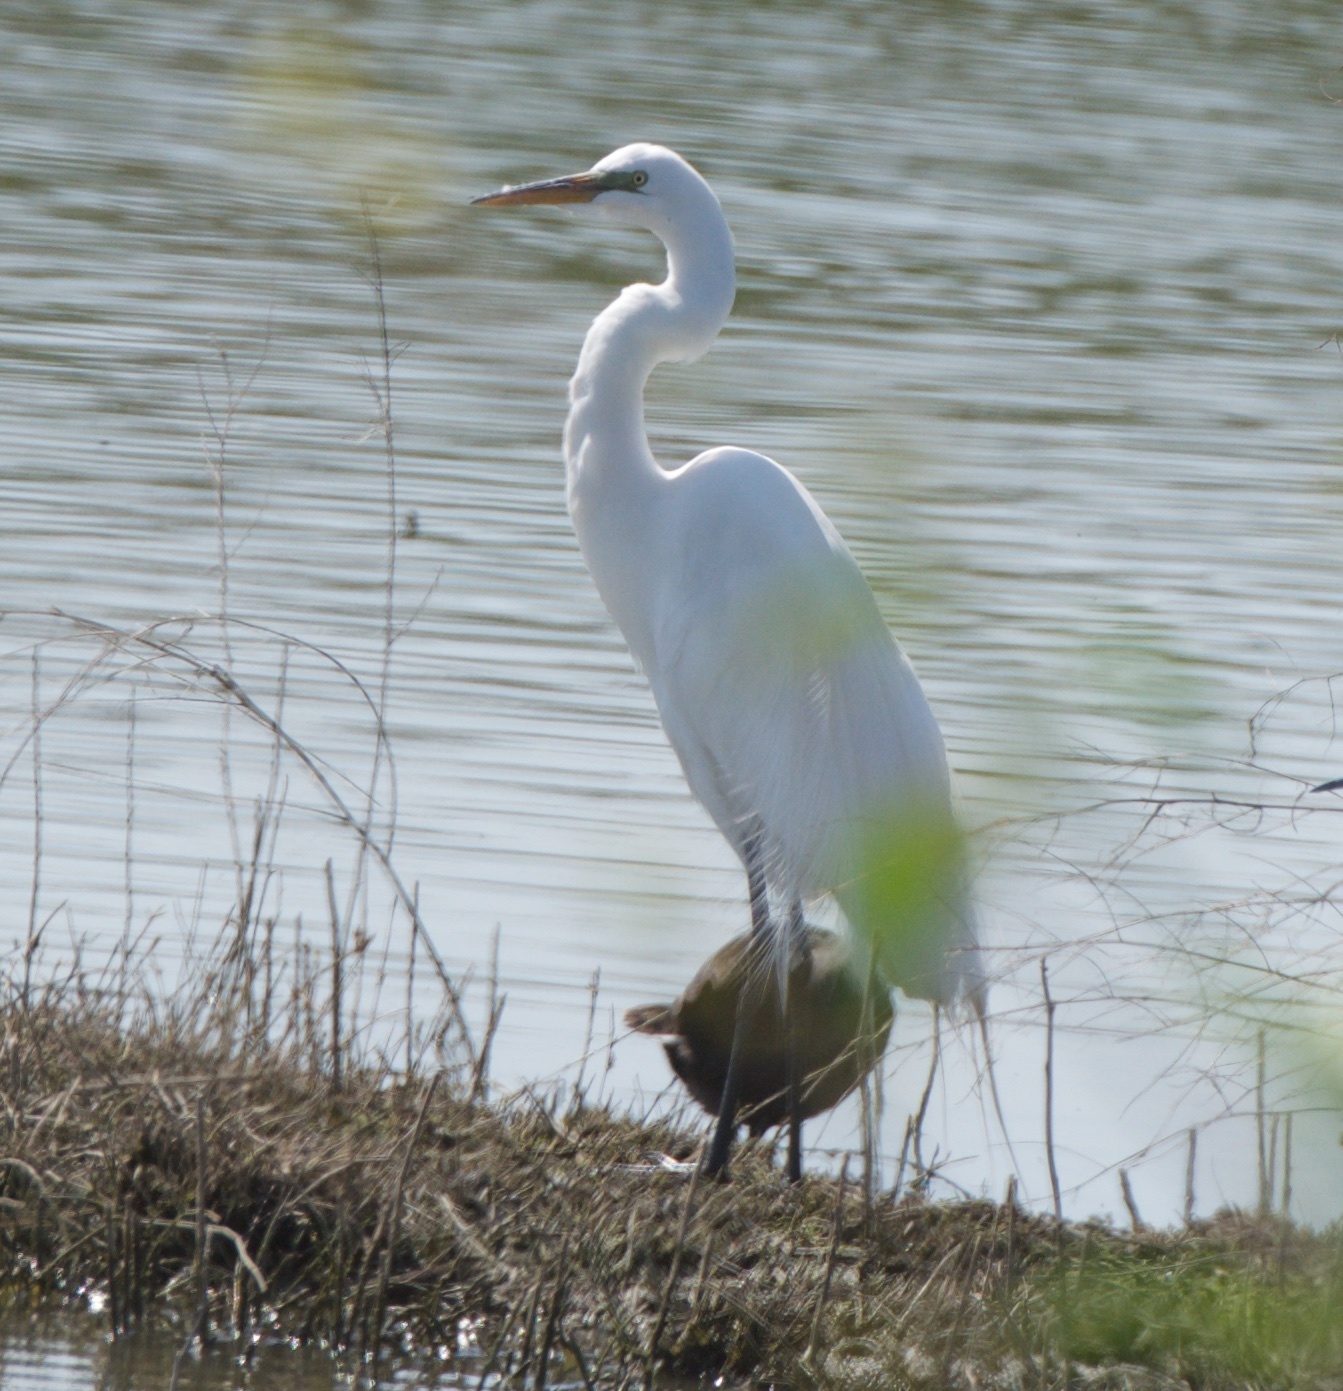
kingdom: Animalia
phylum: Chordata
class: Aves
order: Pelecaniformes
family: Ardeidae
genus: Ardea
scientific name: Ardea alba
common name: Great egret
